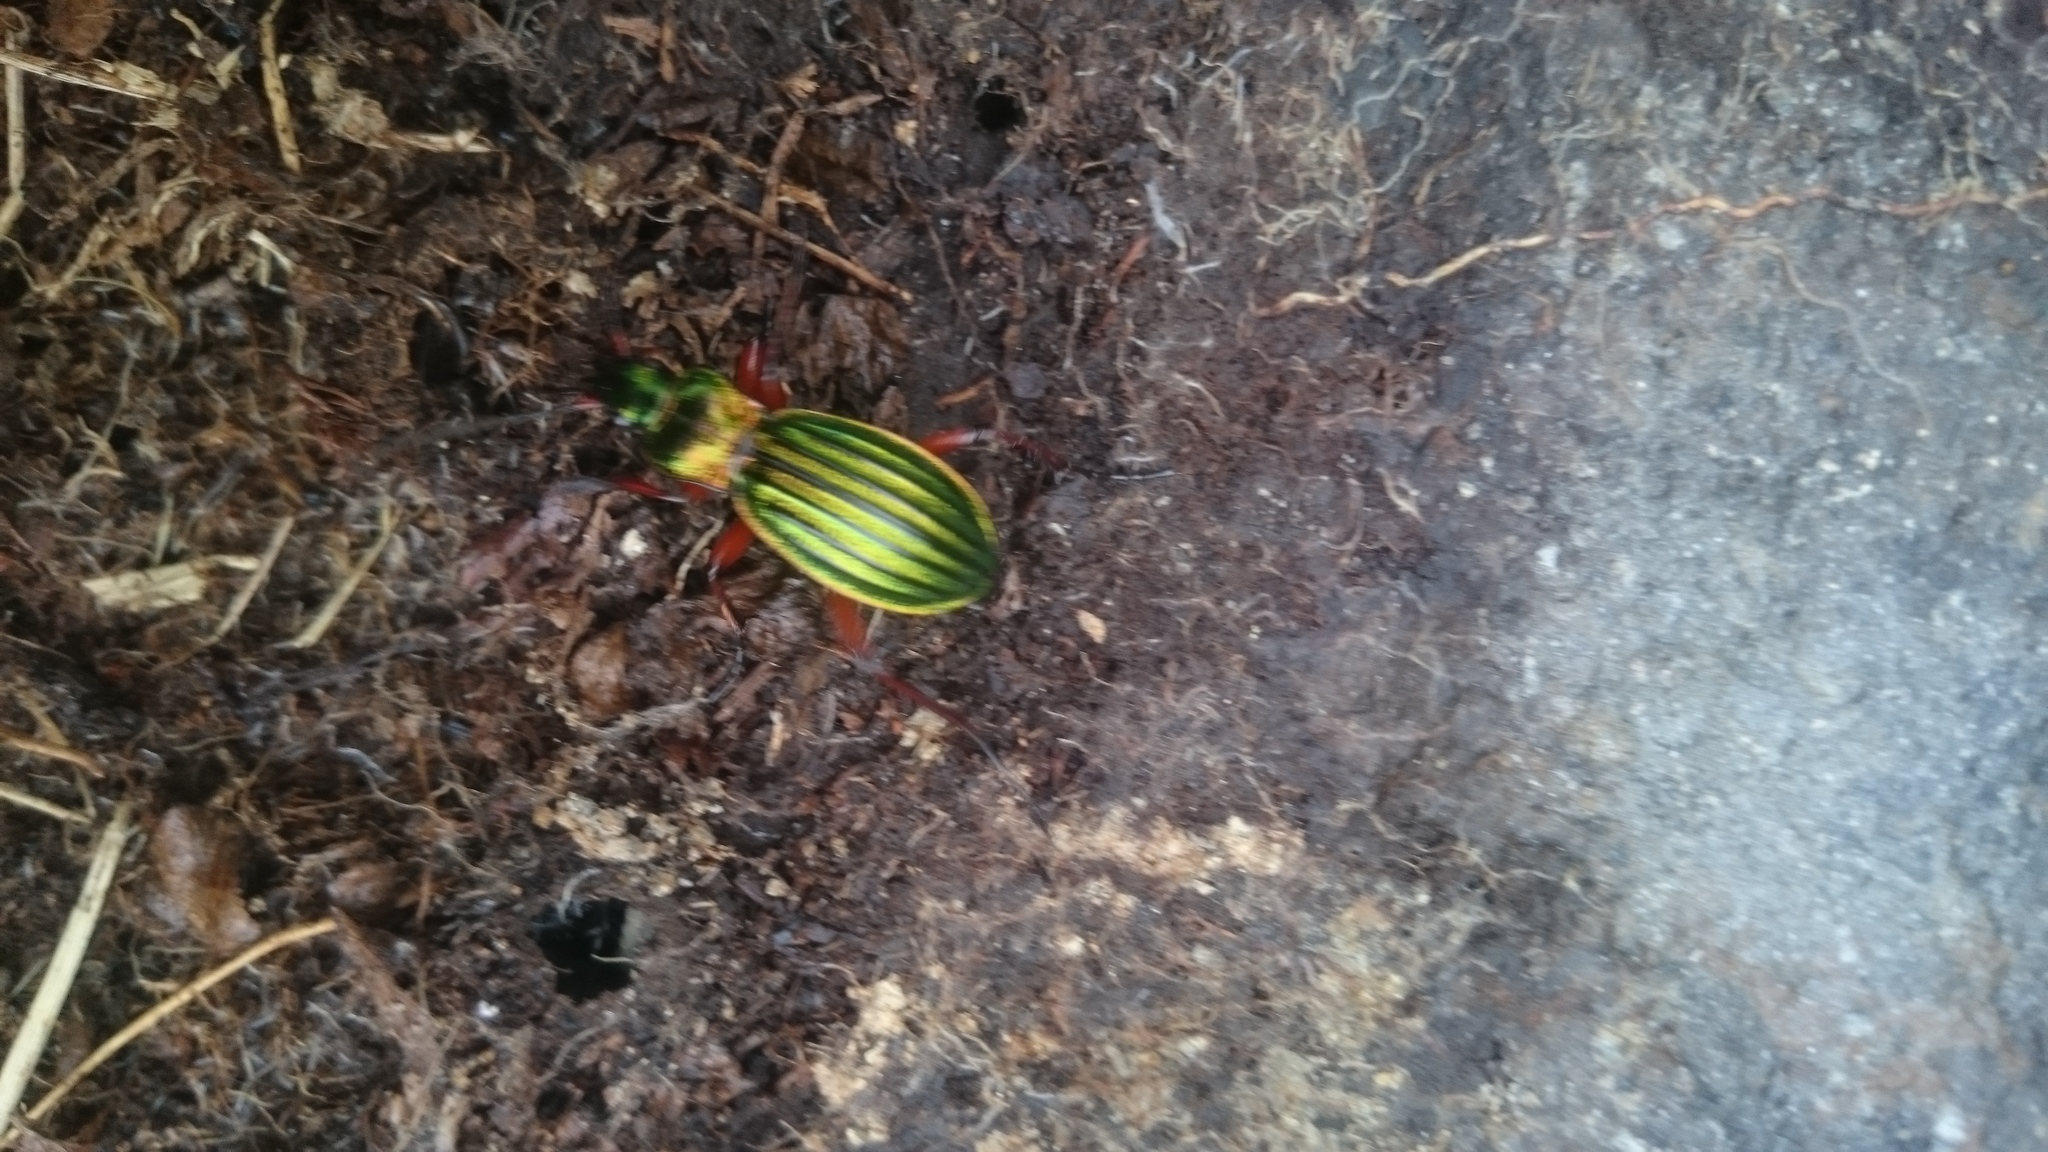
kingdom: Animalia
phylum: Arthropoda
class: Insecta
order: Coleoptera
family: Carabidae
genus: Carabus
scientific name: Carabus auronitens
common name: Carabus auronitens
